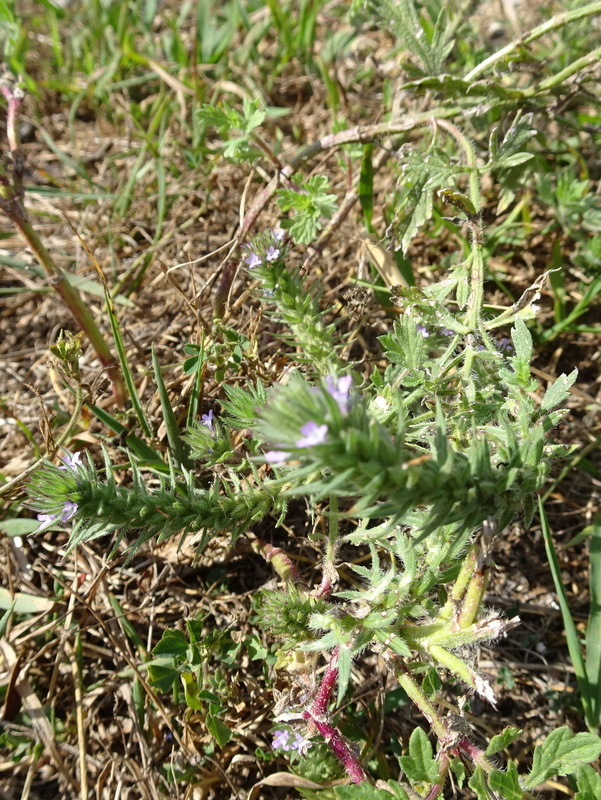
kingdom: Plantae
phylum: Tracheophyta
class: Magnoliopsida
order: Lamiales
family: Verbenaceae
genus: Verbena
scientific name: Verbena bracteata
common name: Bracted vervain
